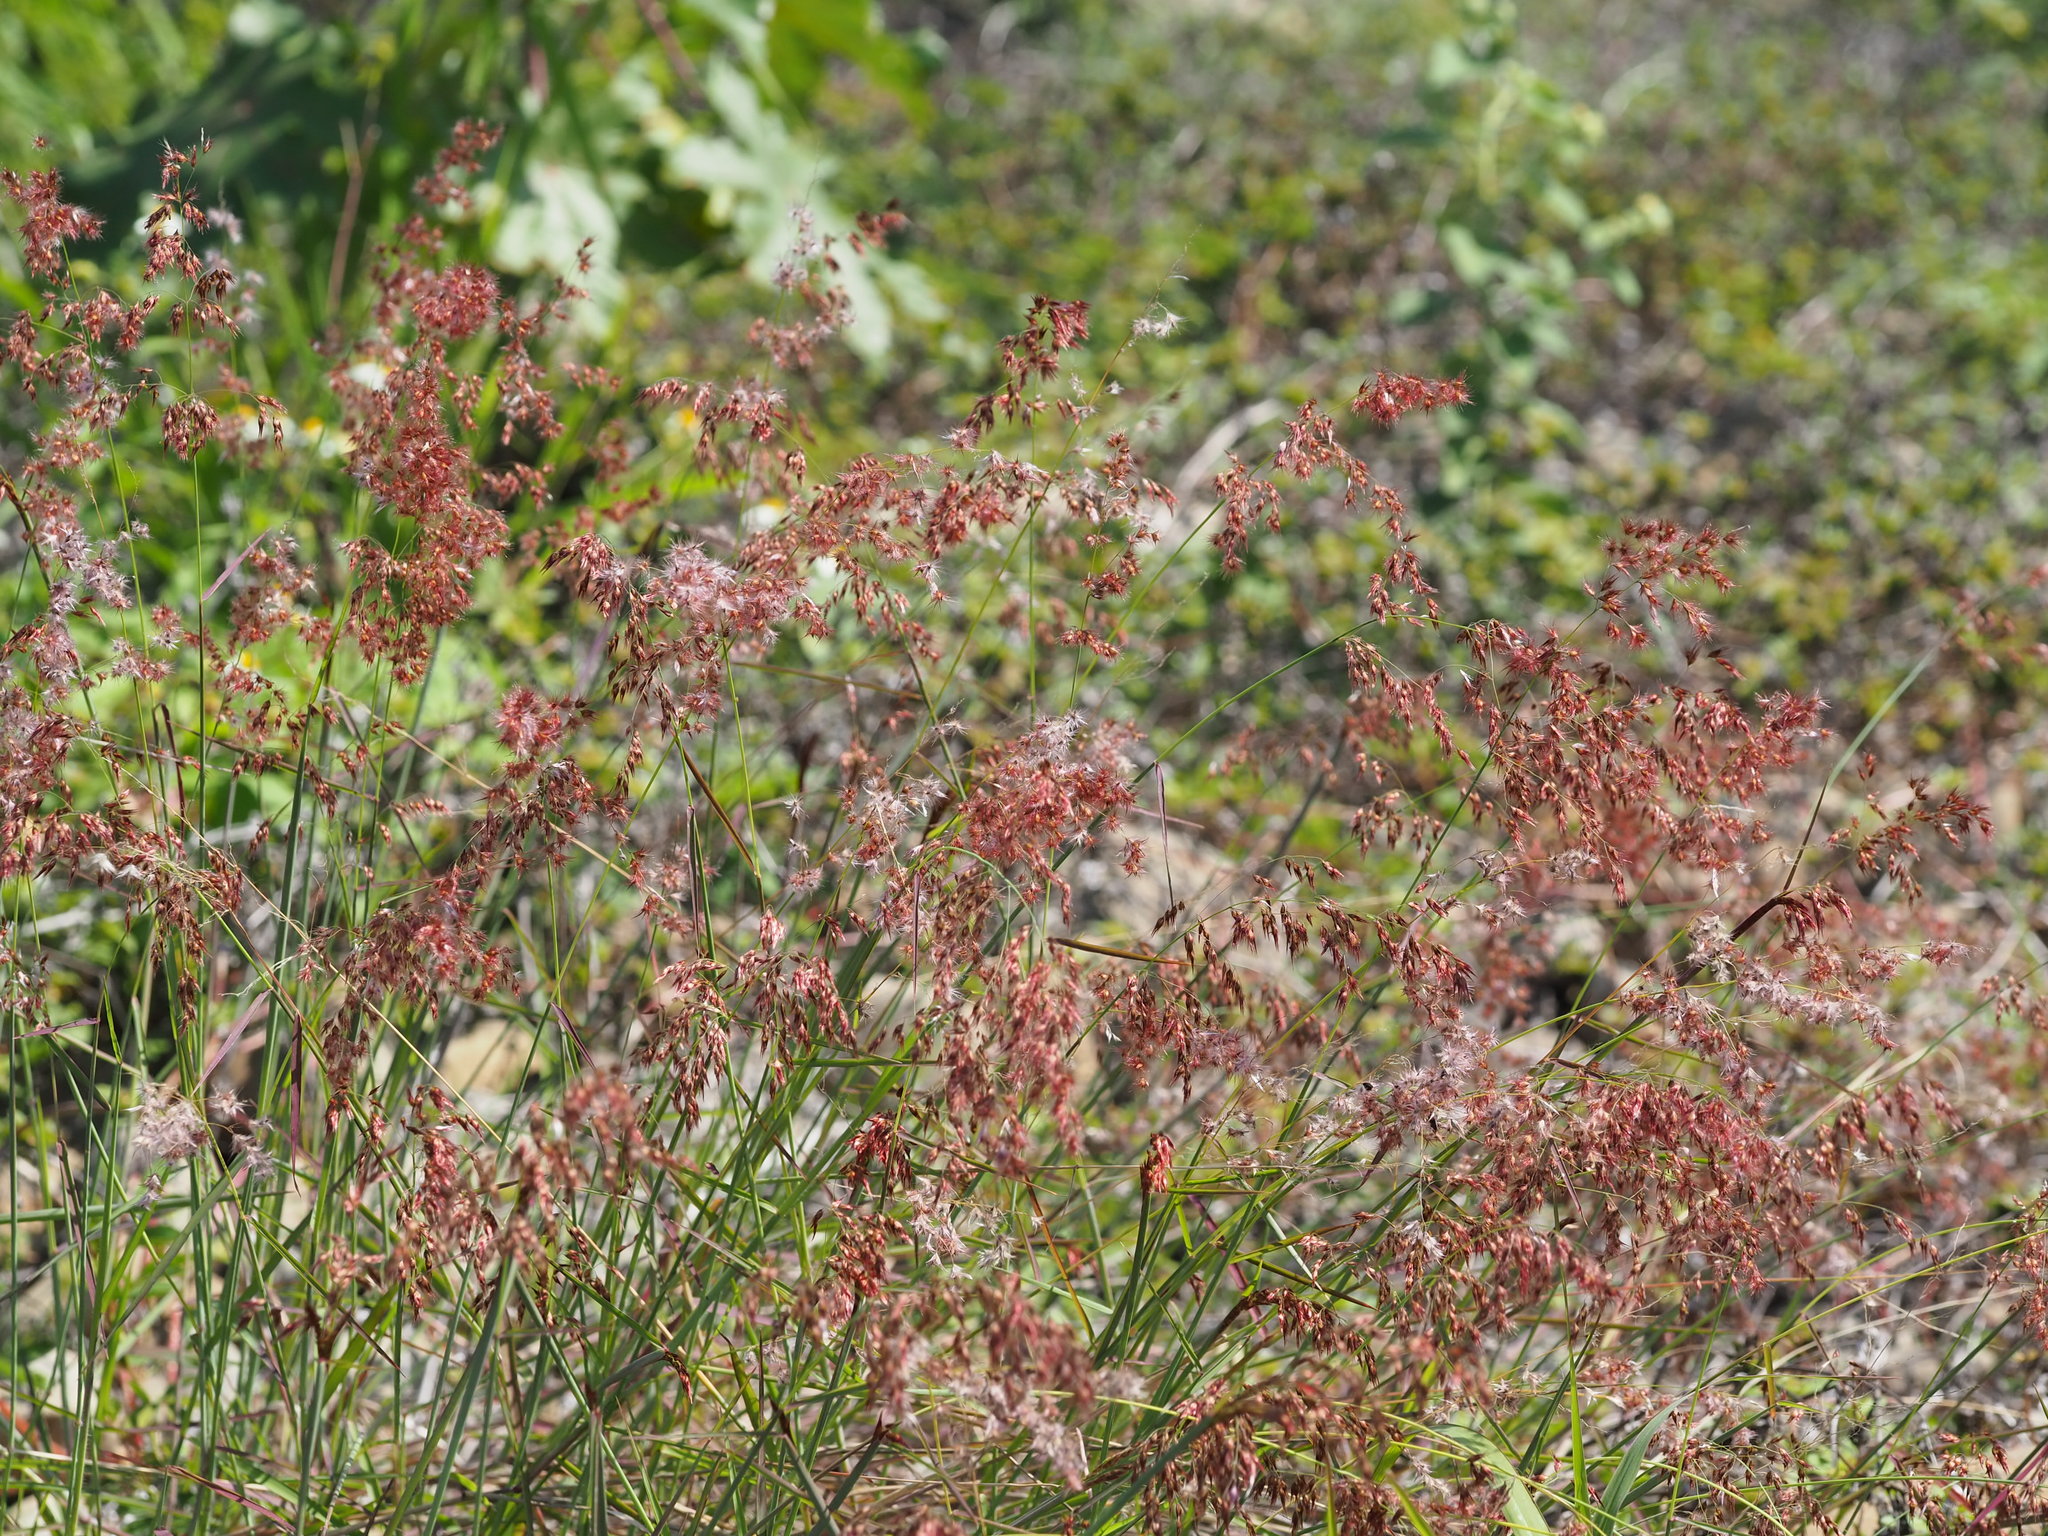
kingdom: Plantae
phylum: Tracheophyta
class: Liliopsida
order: Poales
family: Poaceae
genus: Melinis
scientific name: Melinis repens
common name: Rose natal grass
